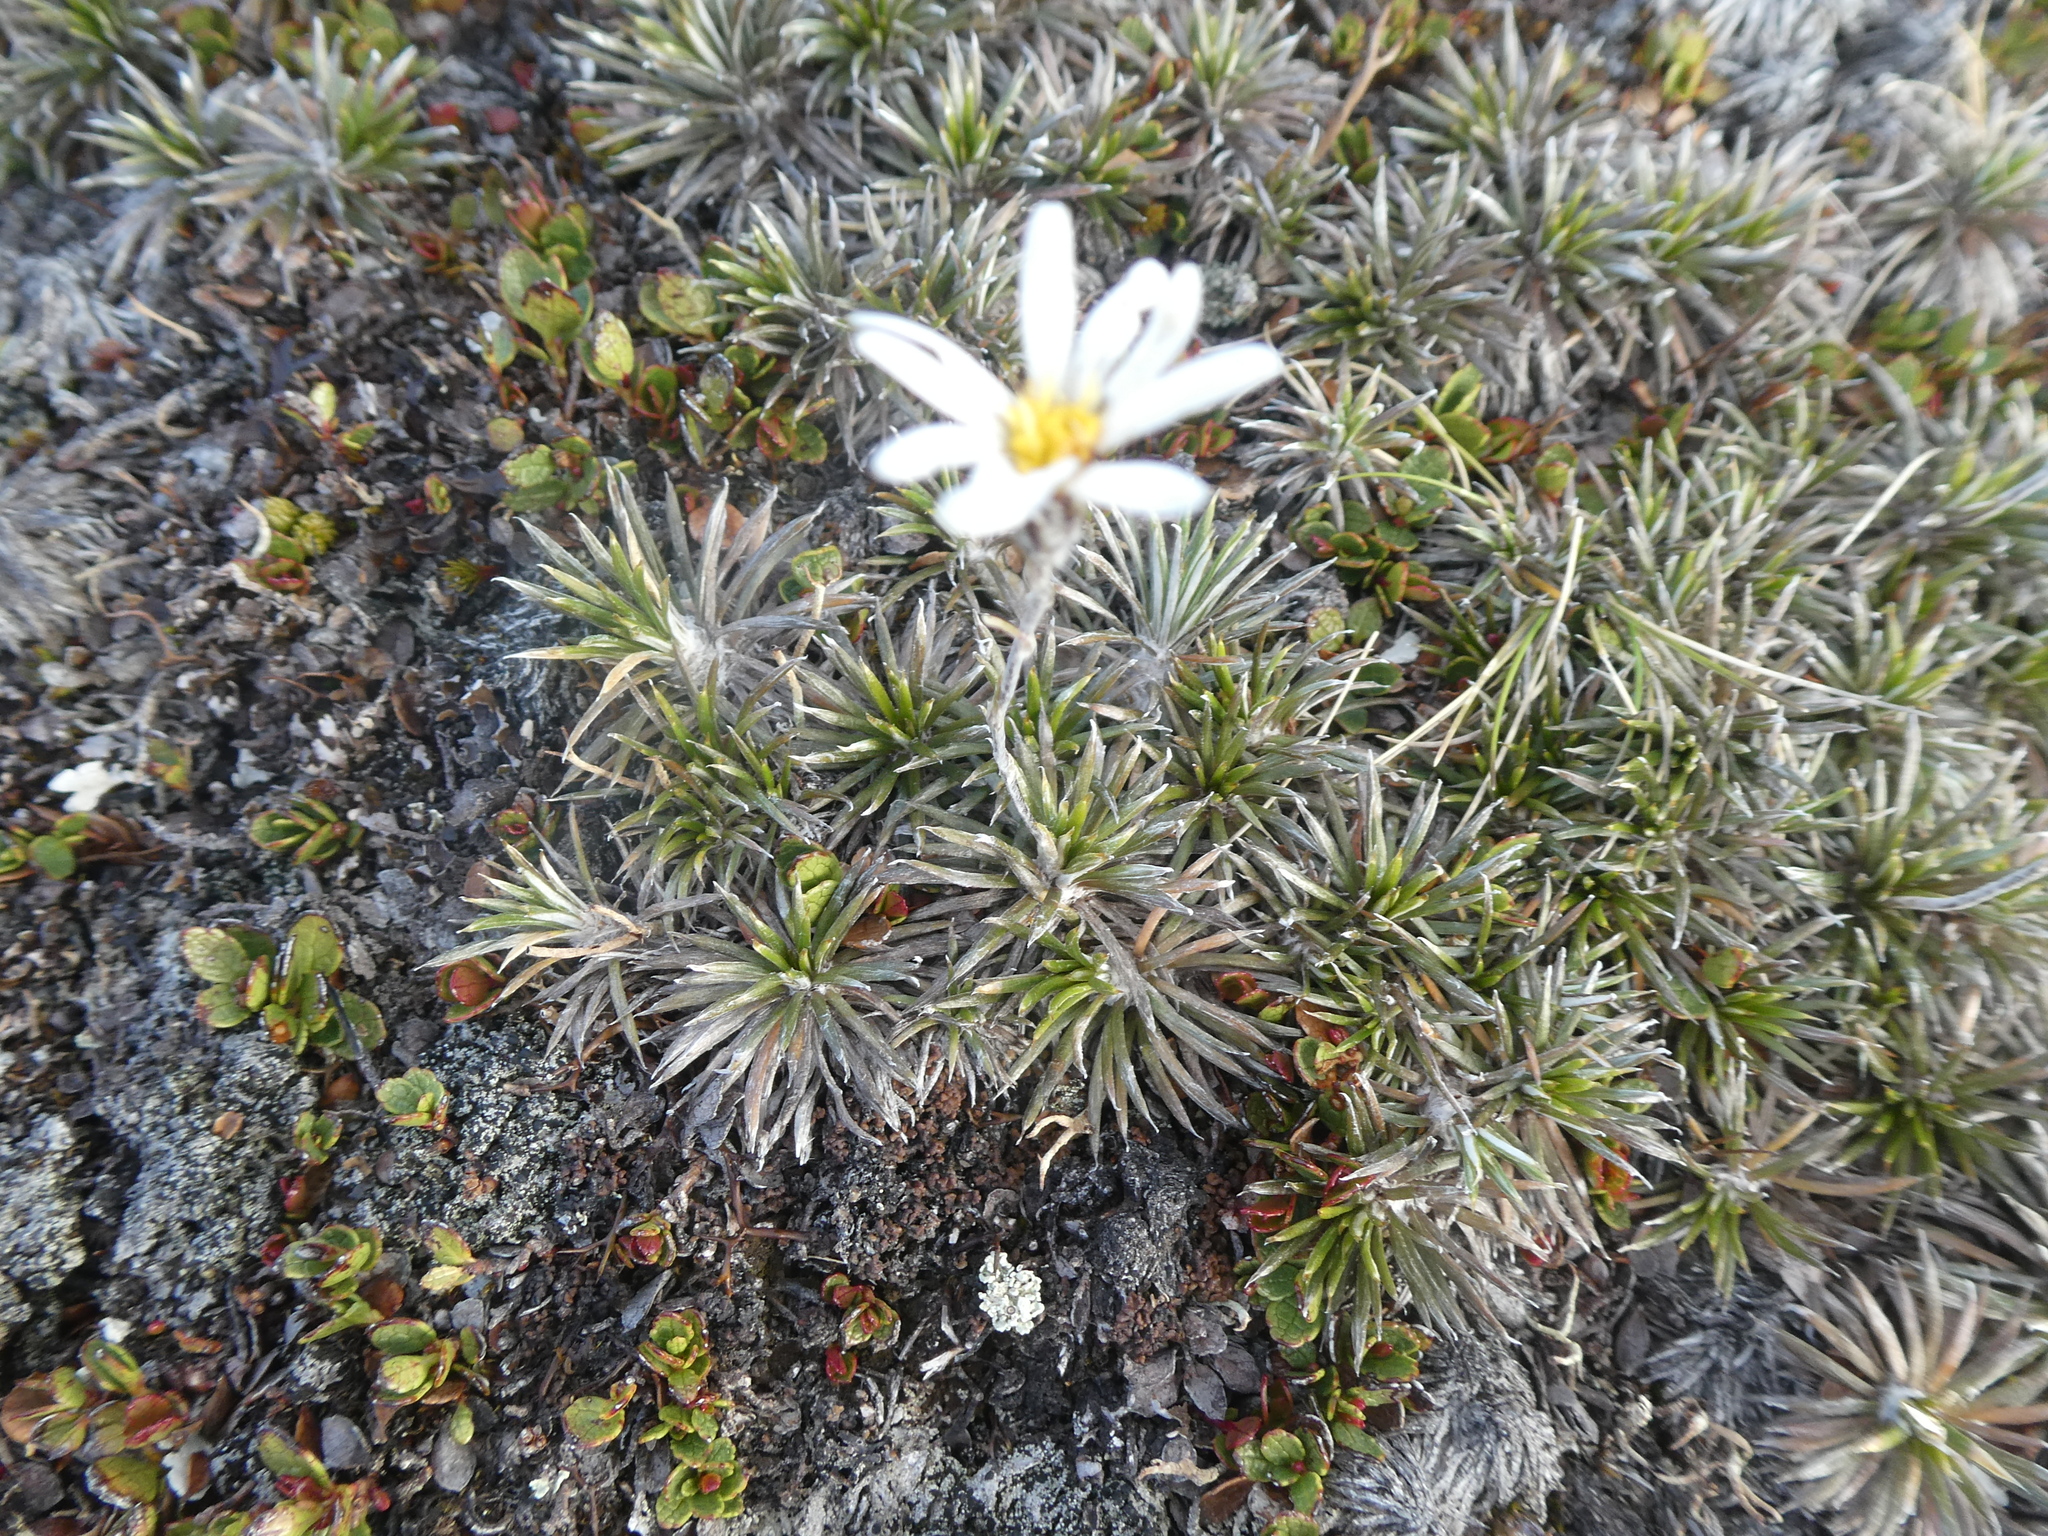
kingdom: Plantae
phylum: Tracheophyta
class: Magnoliopsida
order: Asterales
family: Asteraceae
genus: Celmisia
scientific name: Celmisia laricifolia
